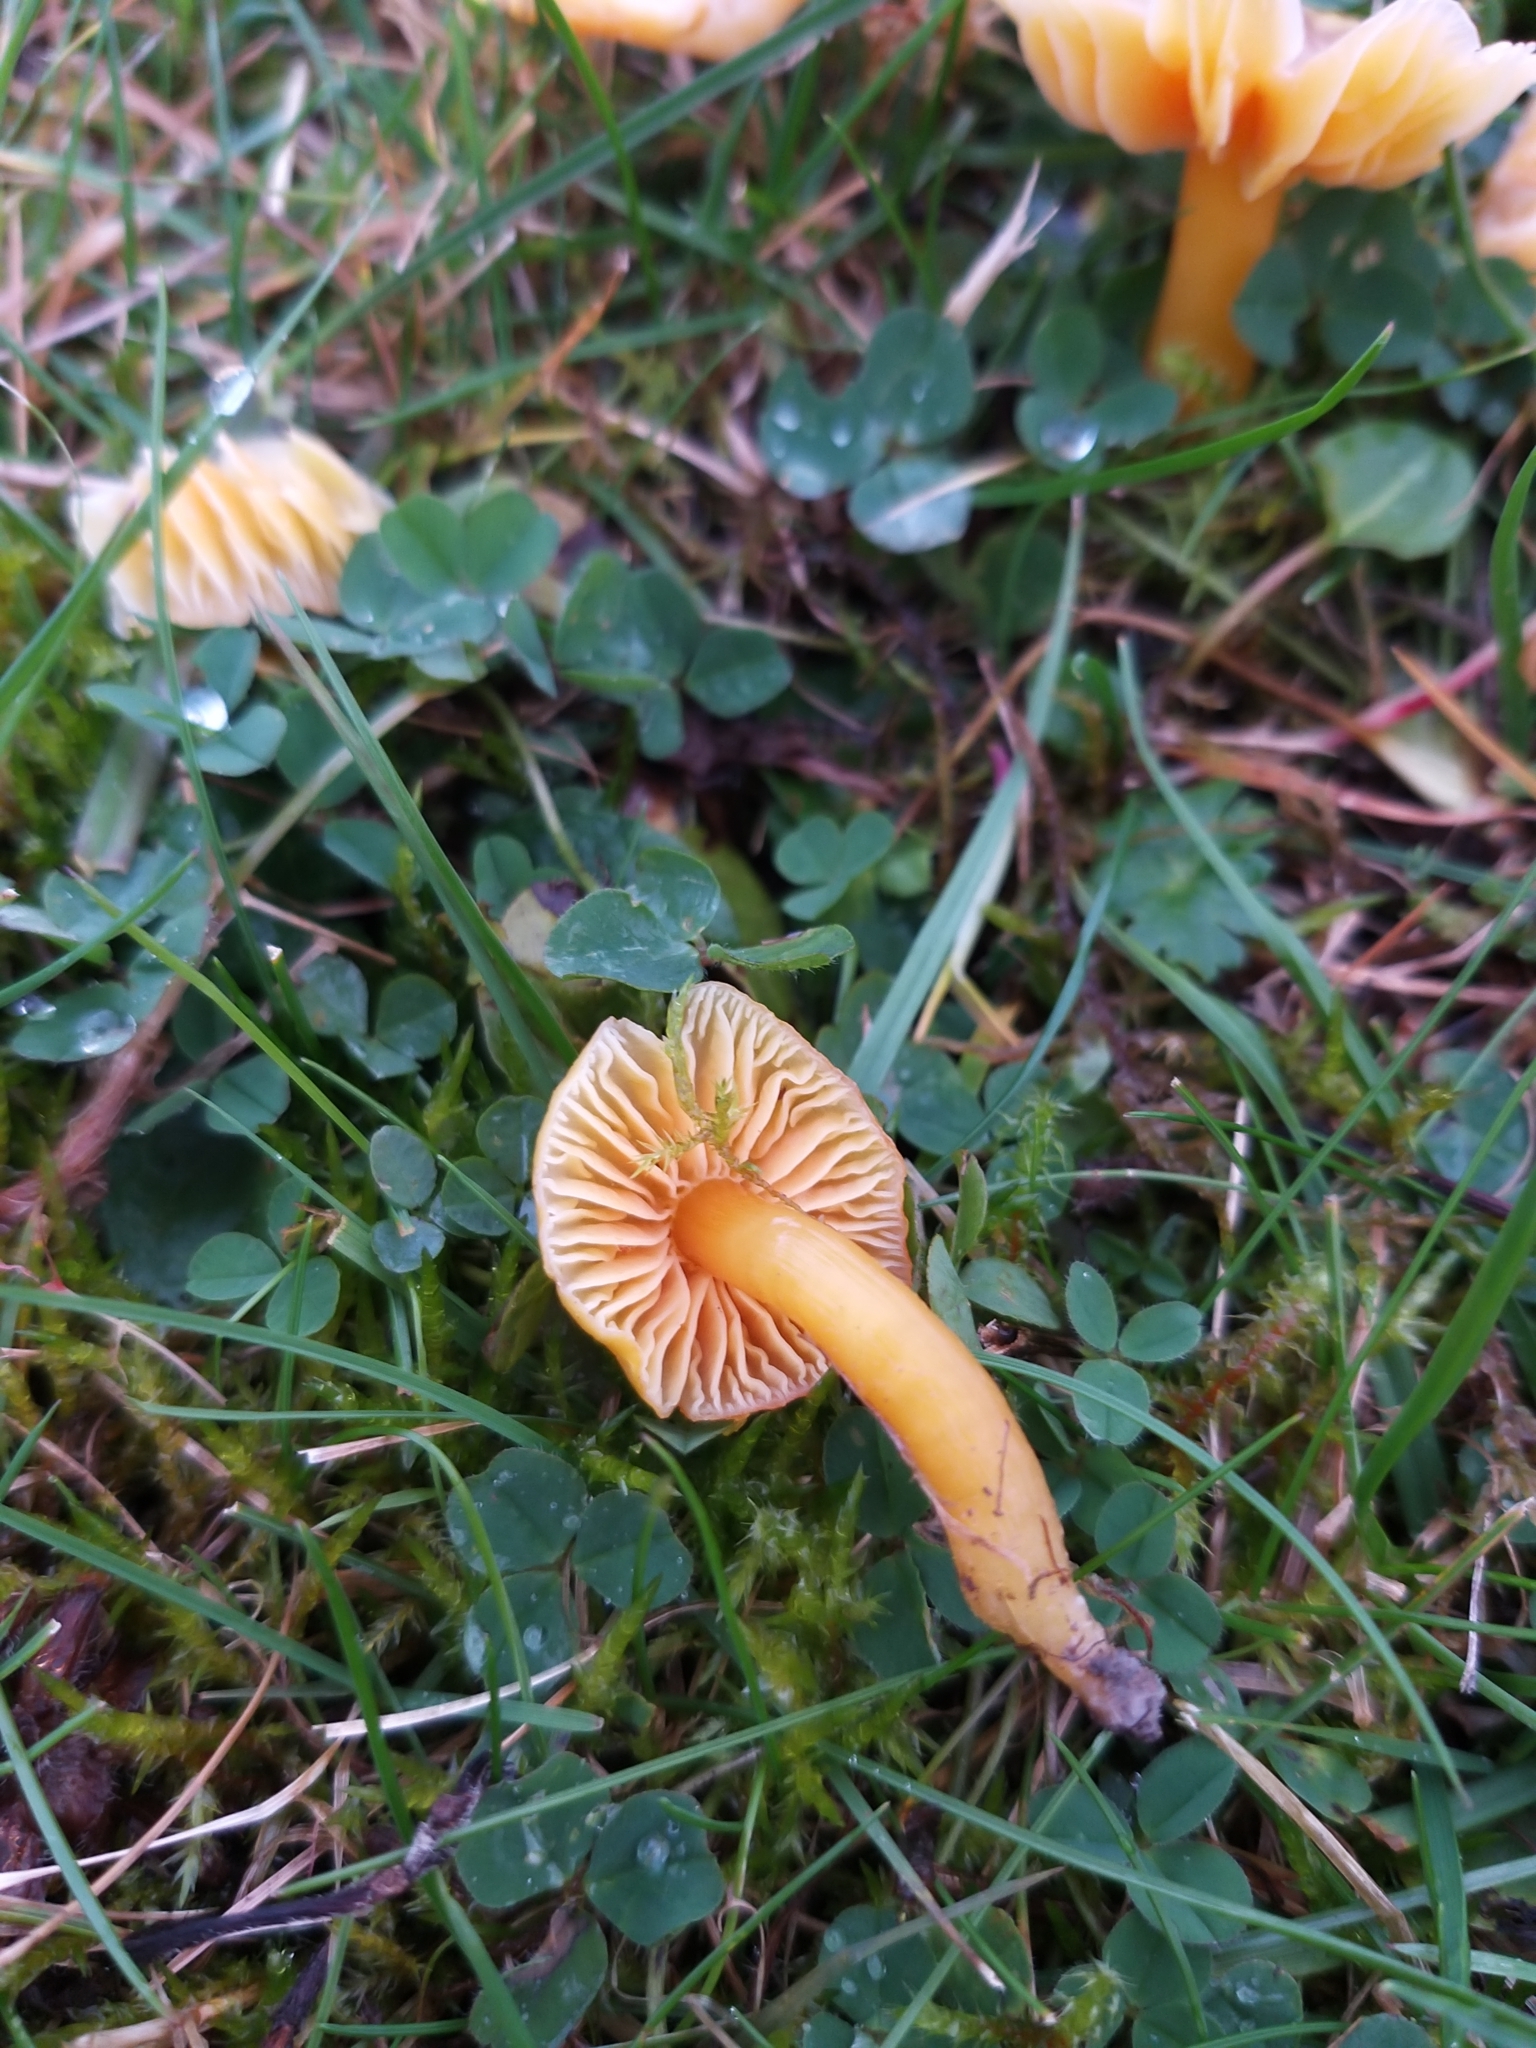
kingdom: Fungi
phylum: Basidiomycota
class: Agaricomycetes
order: Agaricales
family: Hygrophoraceae
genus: Hygrocybe
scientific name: Hygrocybe quieta
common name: Oily waxcap
